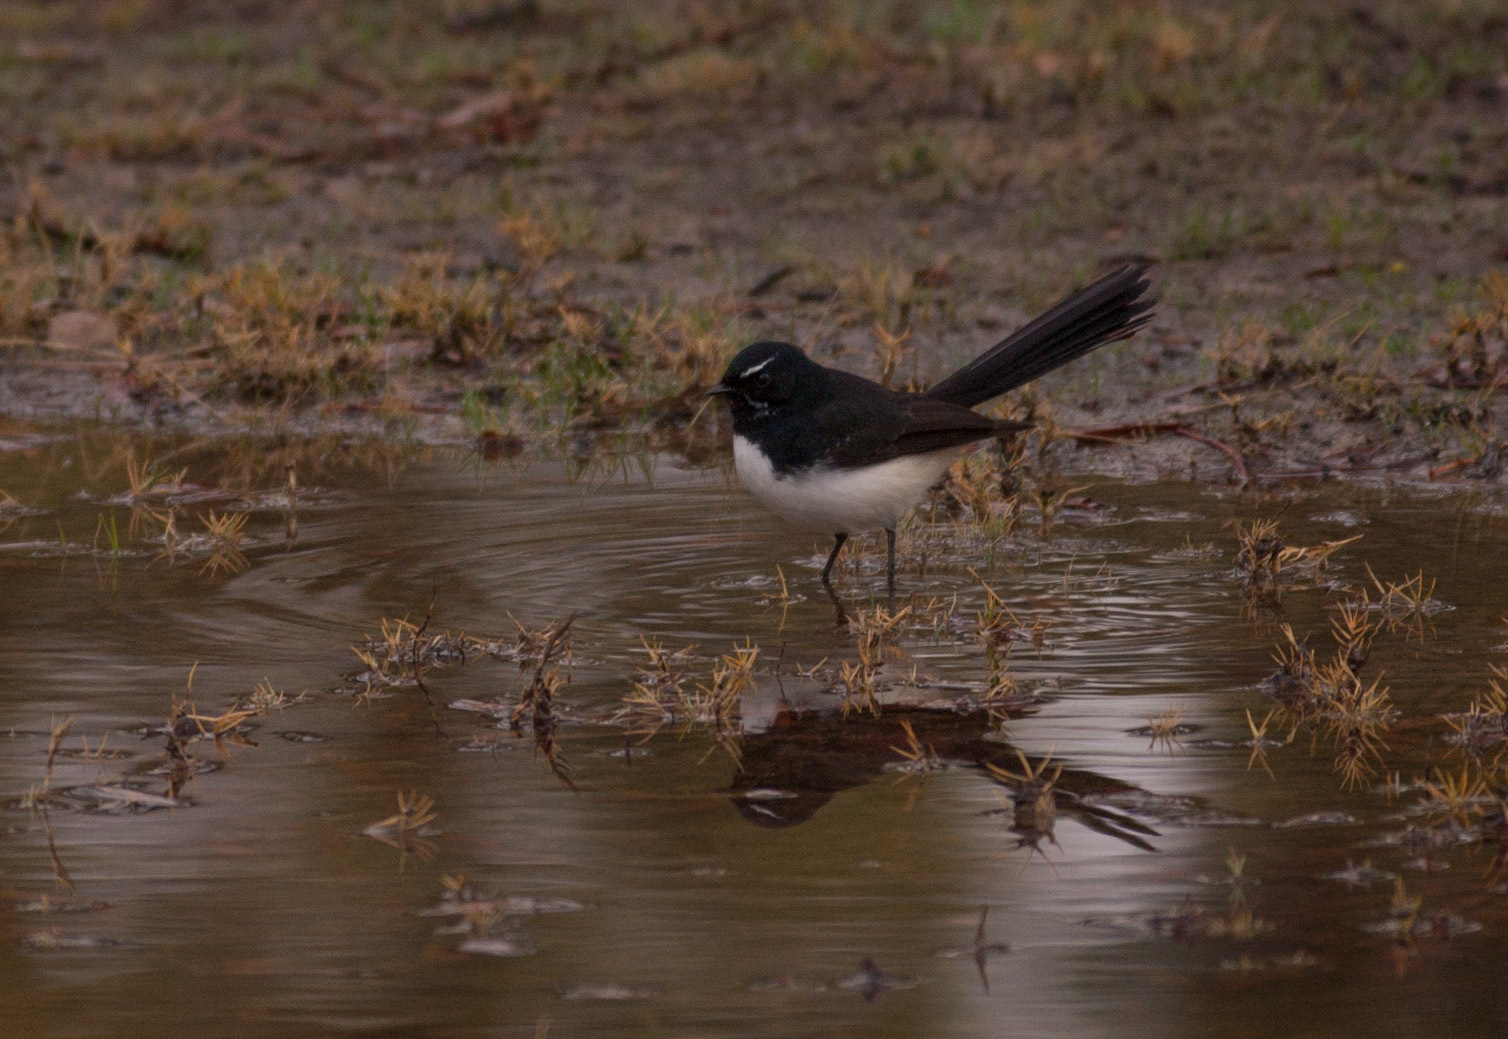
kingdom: Animalia
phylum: Chordata
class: Aves
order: Passeriformes
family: Rhipiduridae
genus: Rhipidura
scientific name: Rhipidura leucophrys
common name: Willie wagtail
